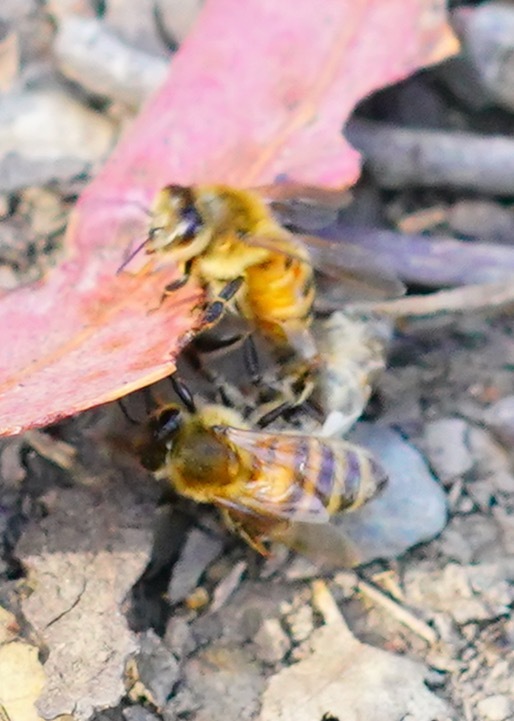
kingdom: Animalia
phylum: Arthropoda
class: Insecta
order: Hymenoptera
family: Apidae
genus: Apis
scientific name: Apis mellifera
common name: Honey bee
